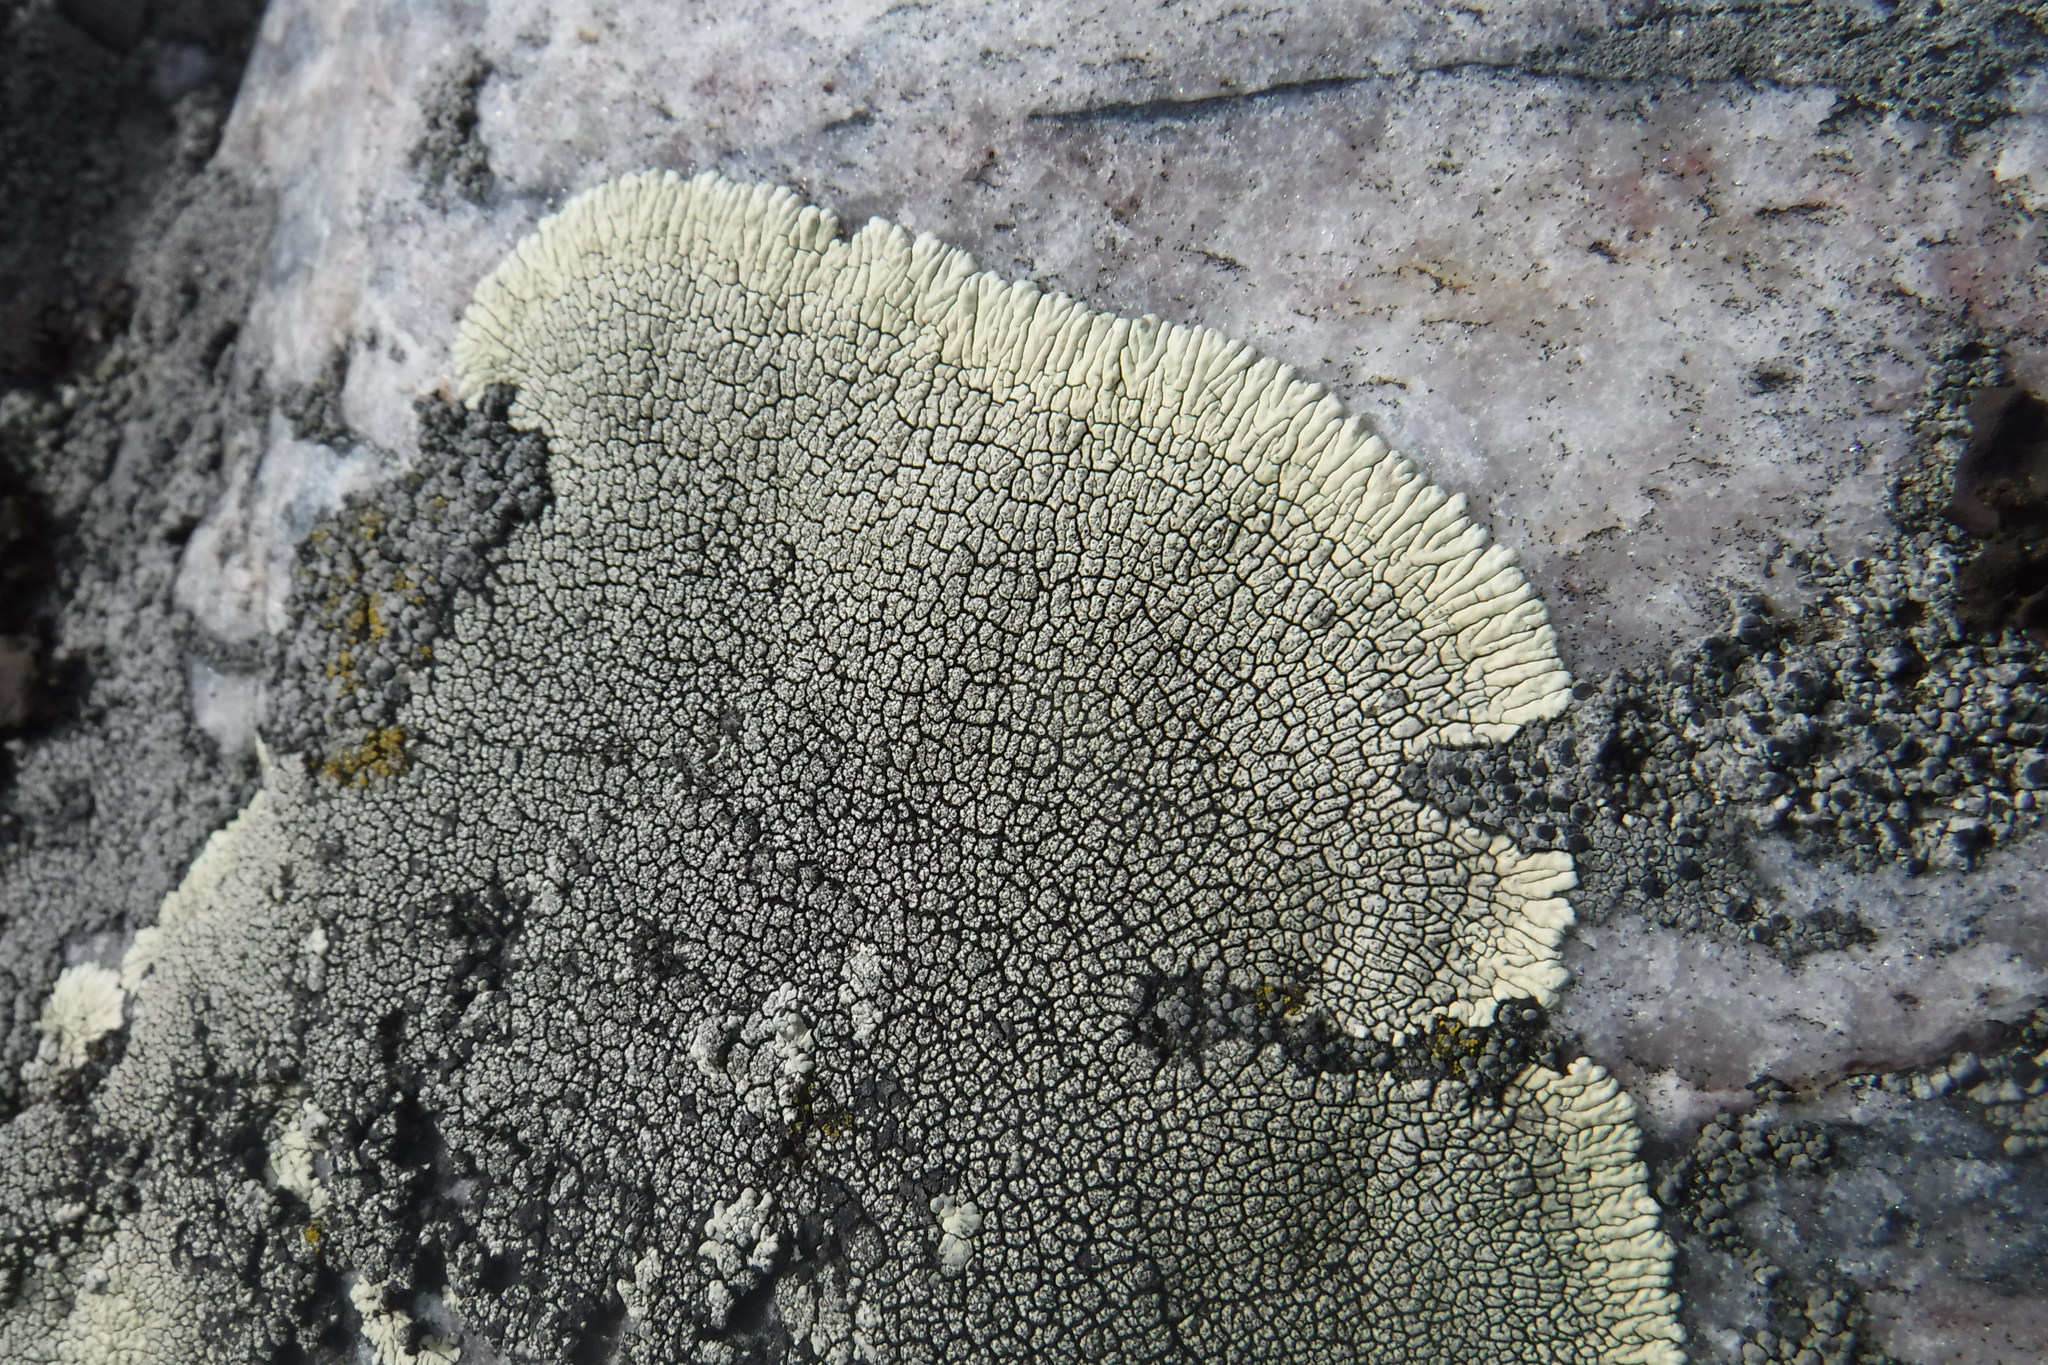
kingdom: Fungi
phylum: Ascomycota
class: Lecanoromycetes
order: Caliciales
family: Caliciaceae
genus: Dimelaena
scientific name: Dimelaena oreina
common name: Golden moonglow lichen
